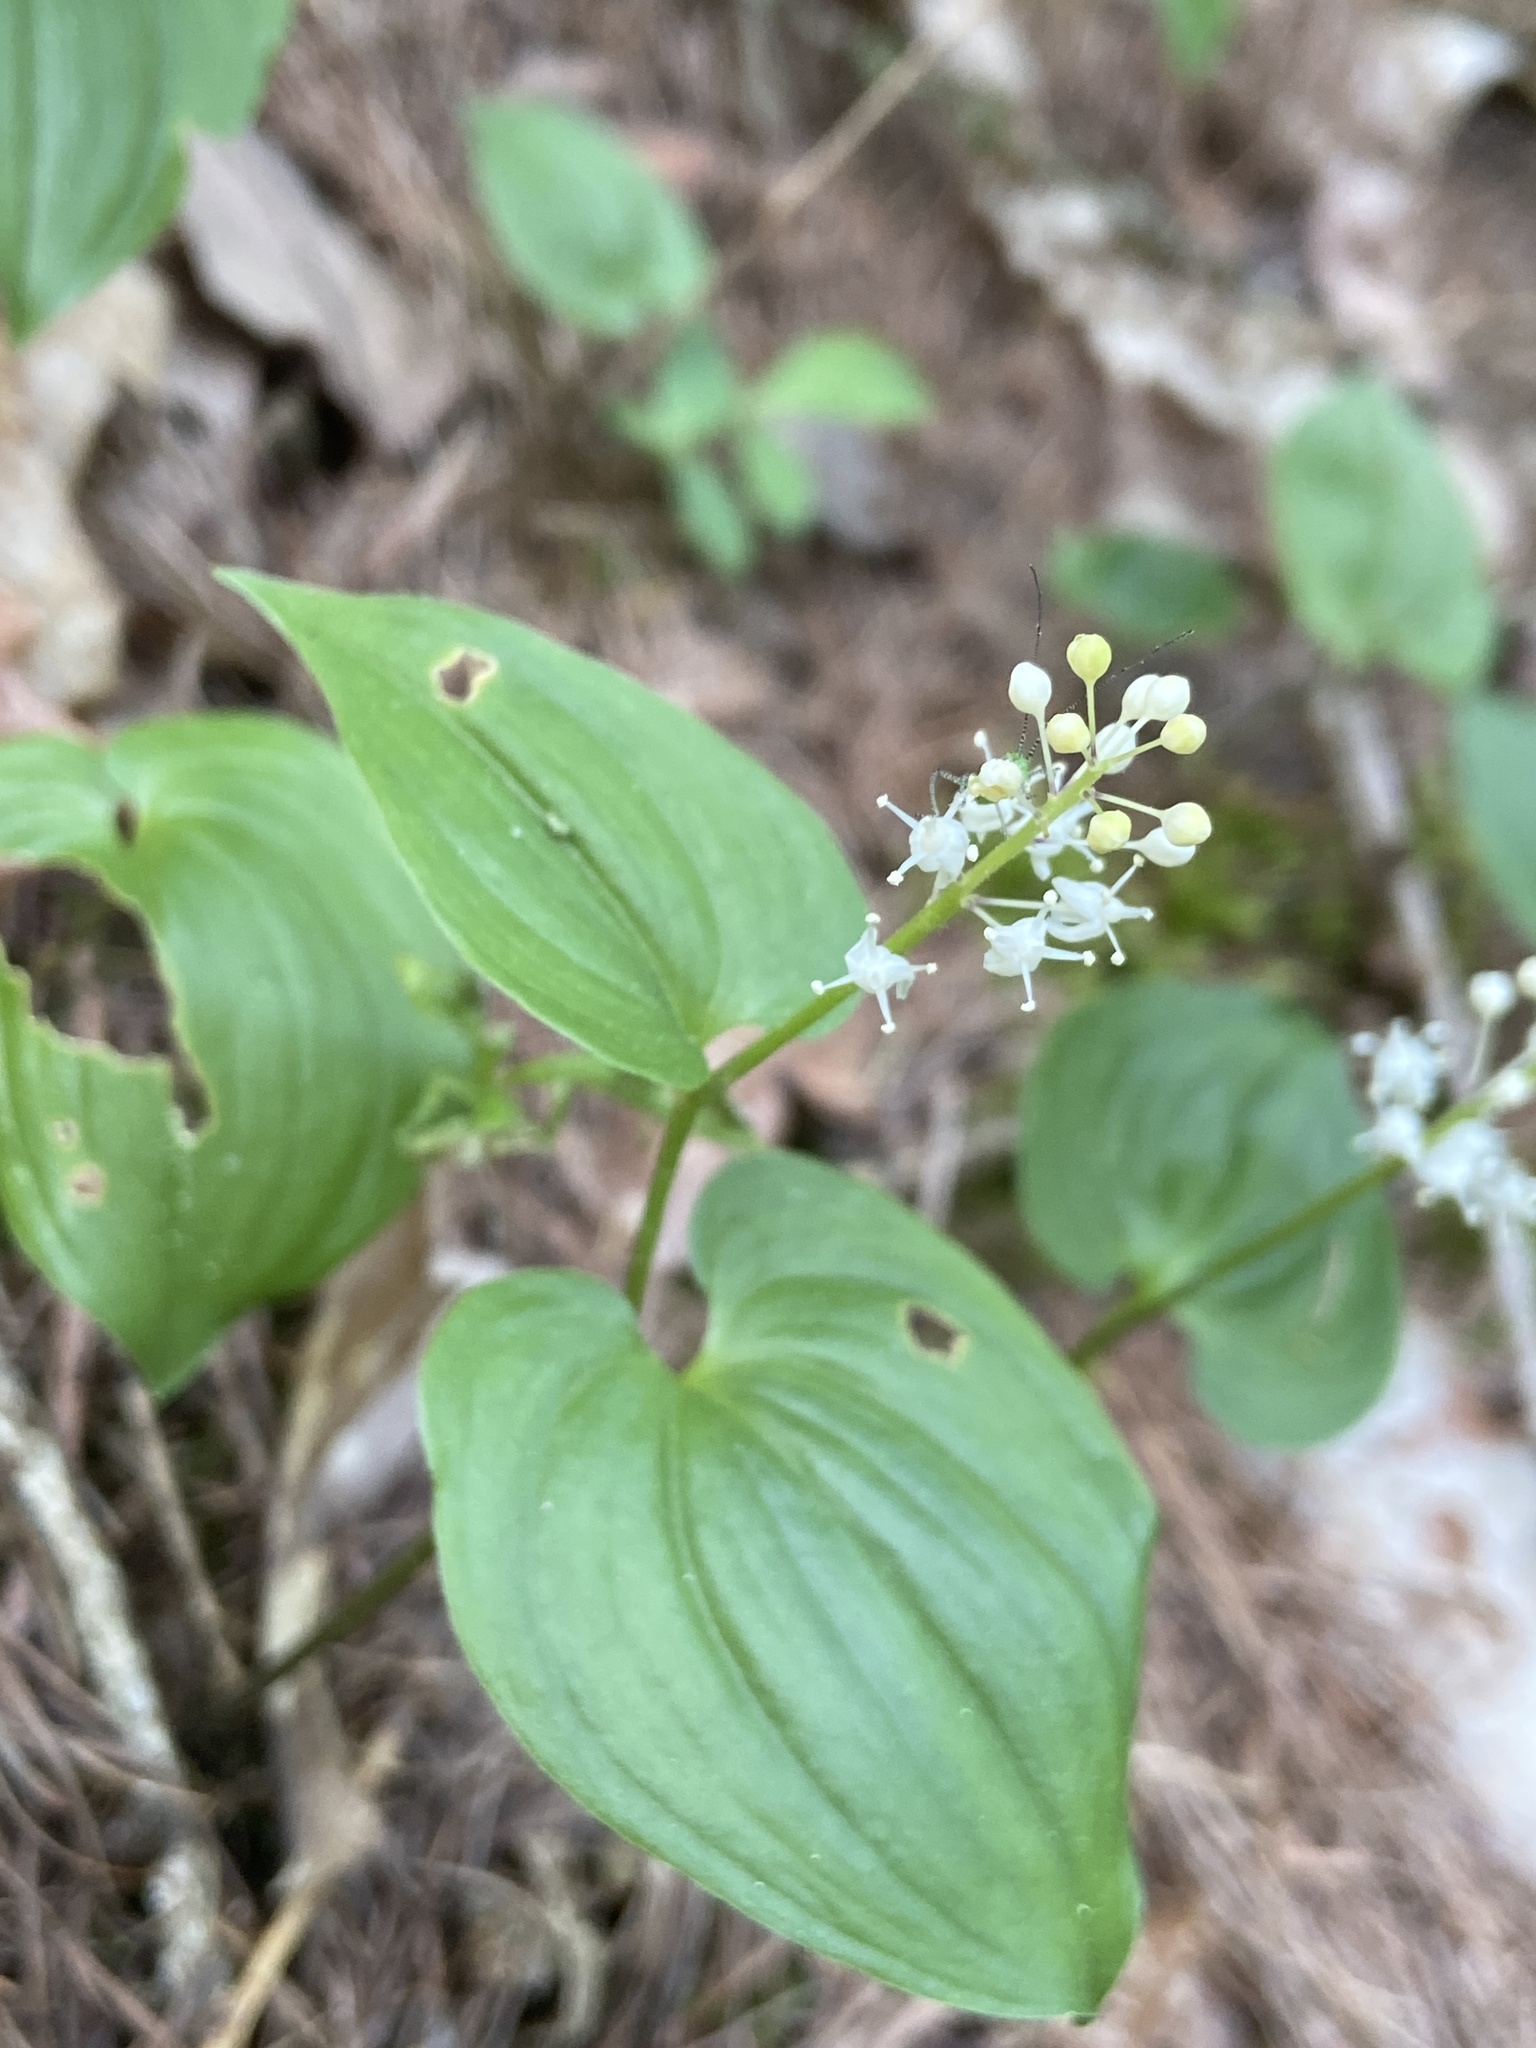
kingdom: Plantae
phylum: Tracheophyta
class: Liliopsida
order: Asparagales
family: Asparagaceae
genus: Maianthemum
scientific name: Maianthemum bifolium
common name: May lily
